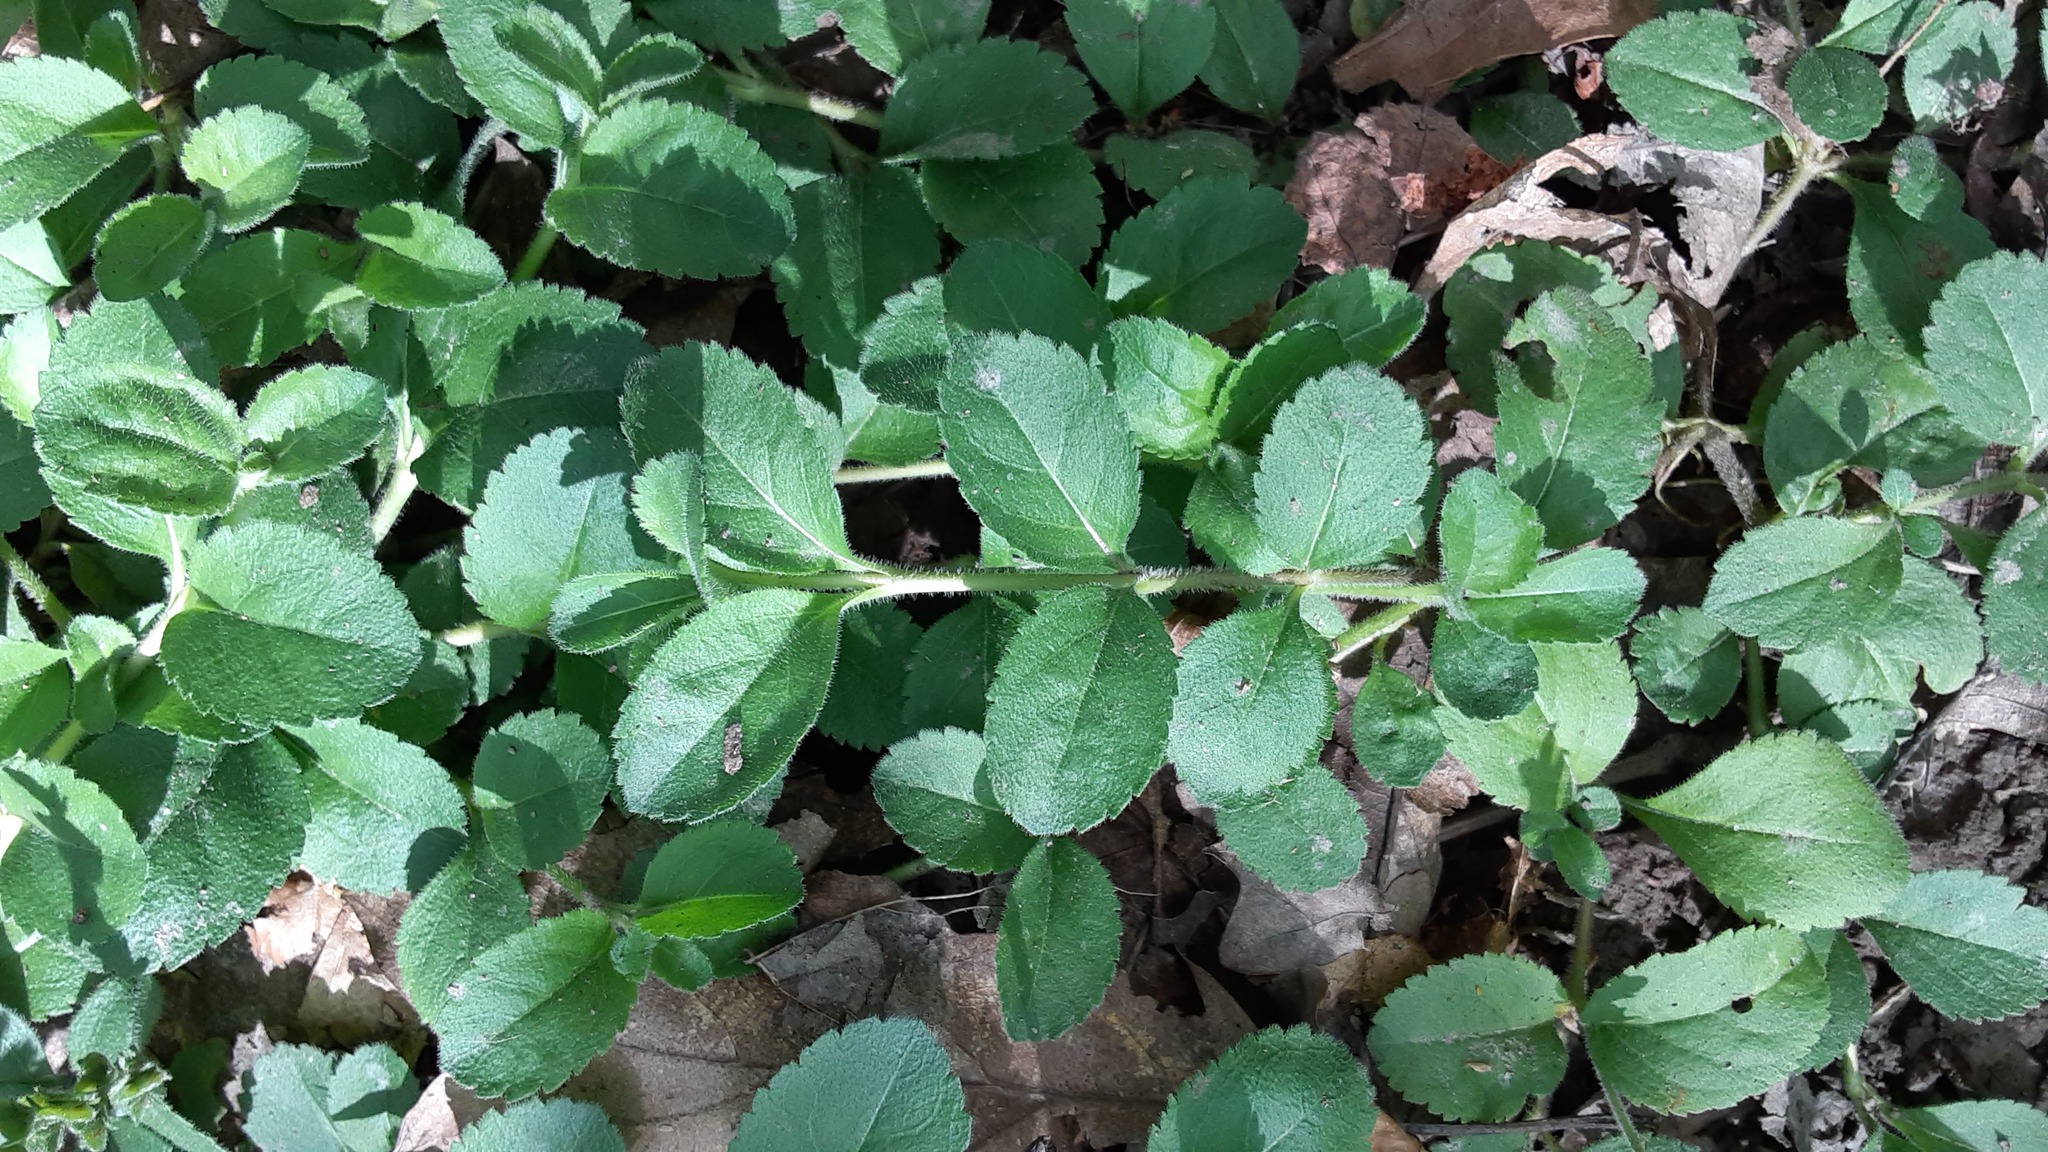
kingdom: Plantae
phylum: Tracheophyta
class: Magnoliopsida
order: Lamiales
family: Plantaginaceae
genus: Veronica
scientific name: Veronica officinalis
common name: Common speedwell
